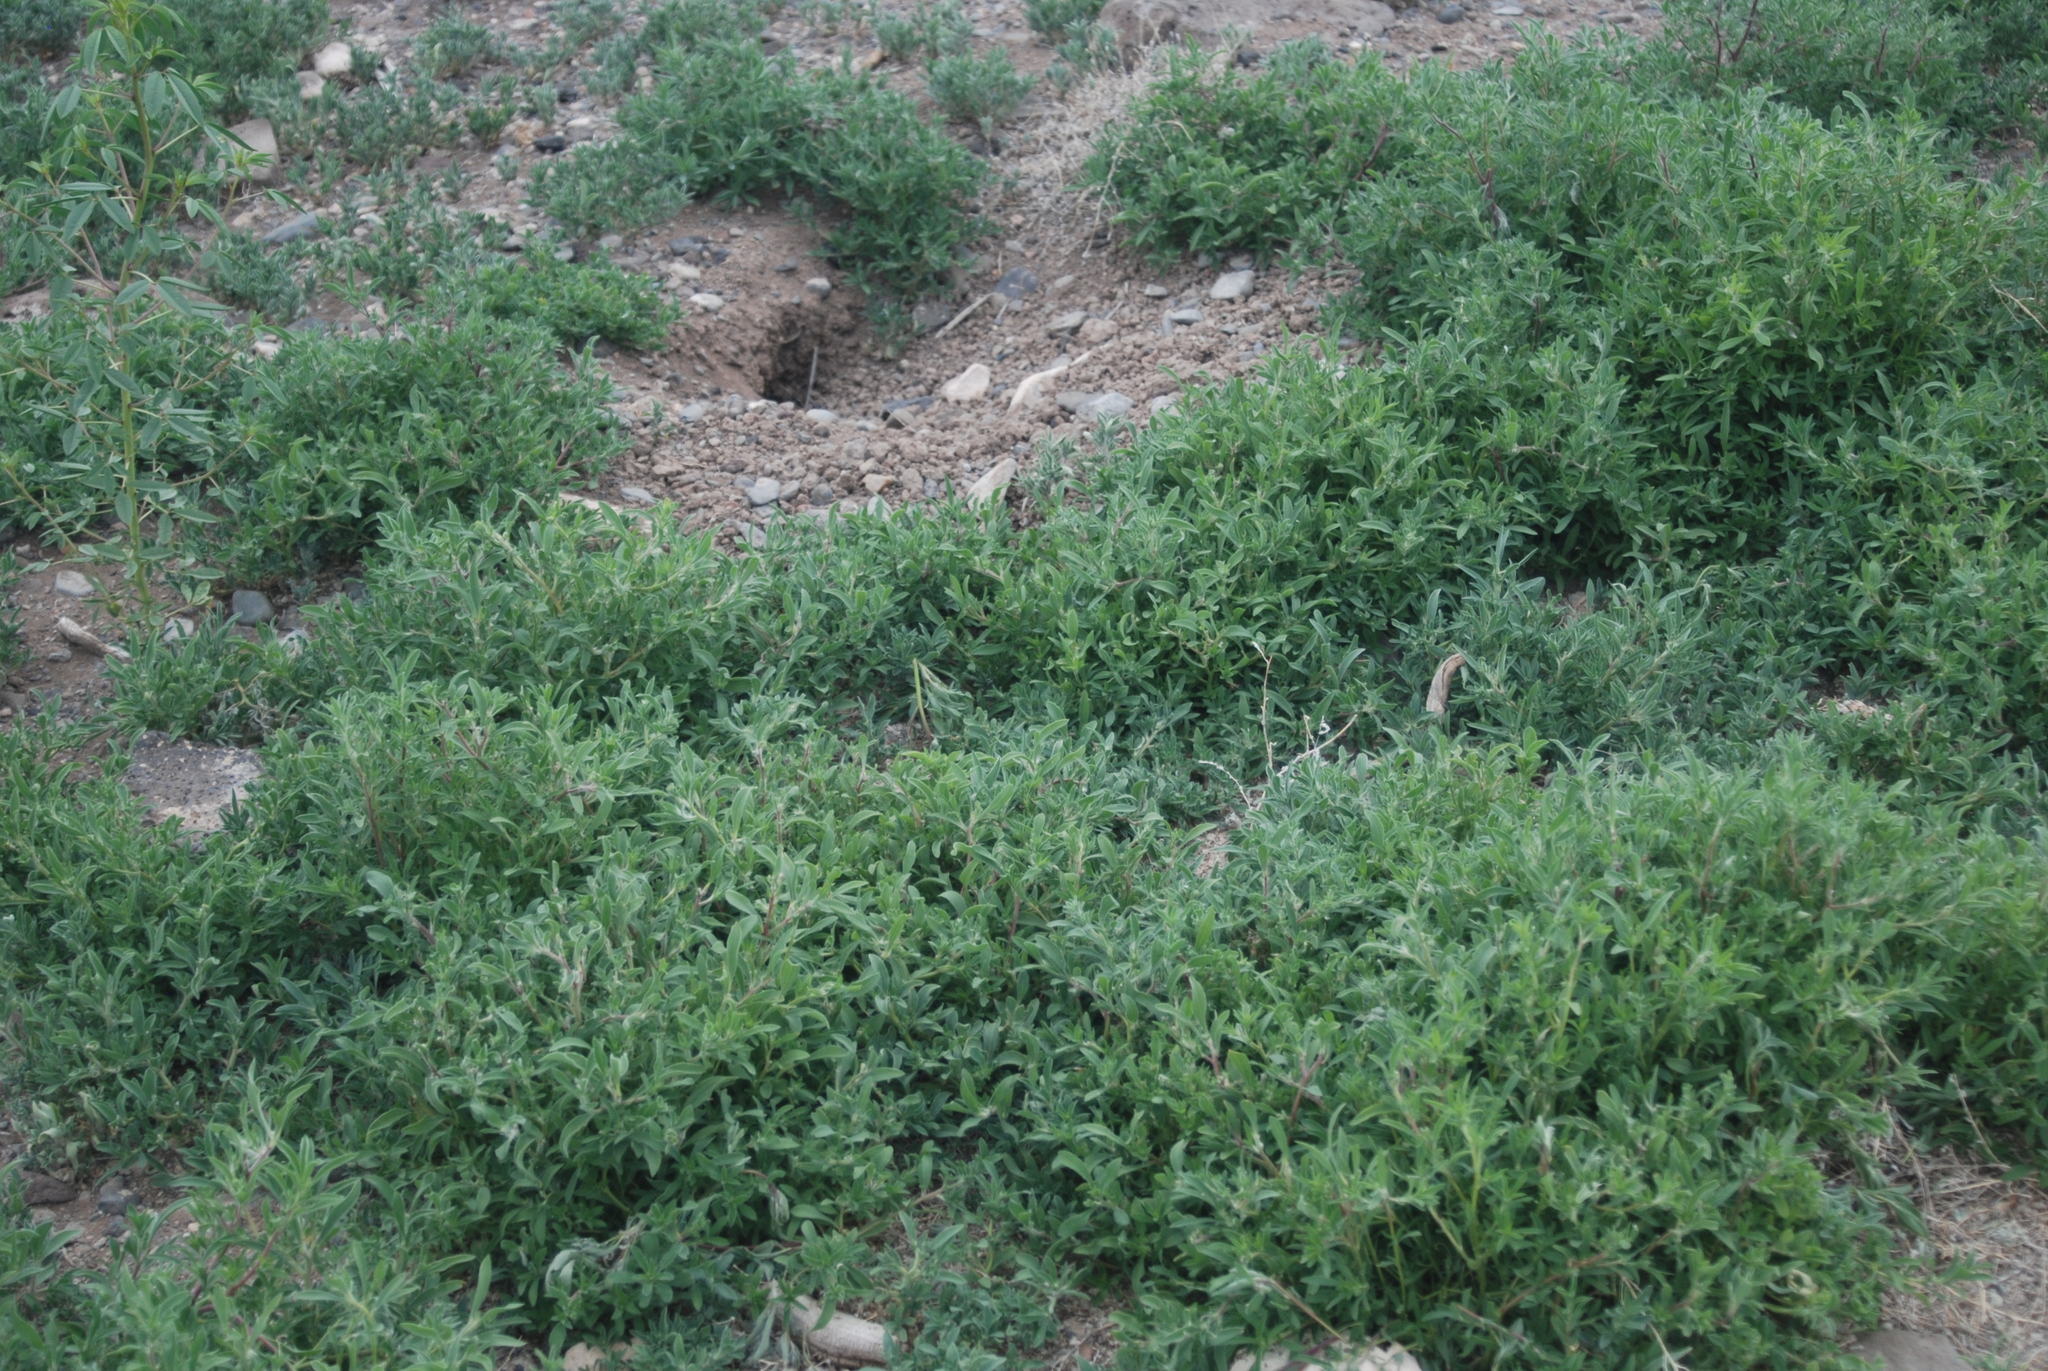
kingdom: Animalia
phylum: Chordata
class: Mammalia
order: Rodentia
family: Sciuridae
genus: Cynomys
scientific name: Cynomys gunnisoni
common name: Gunnison's prairie dog
